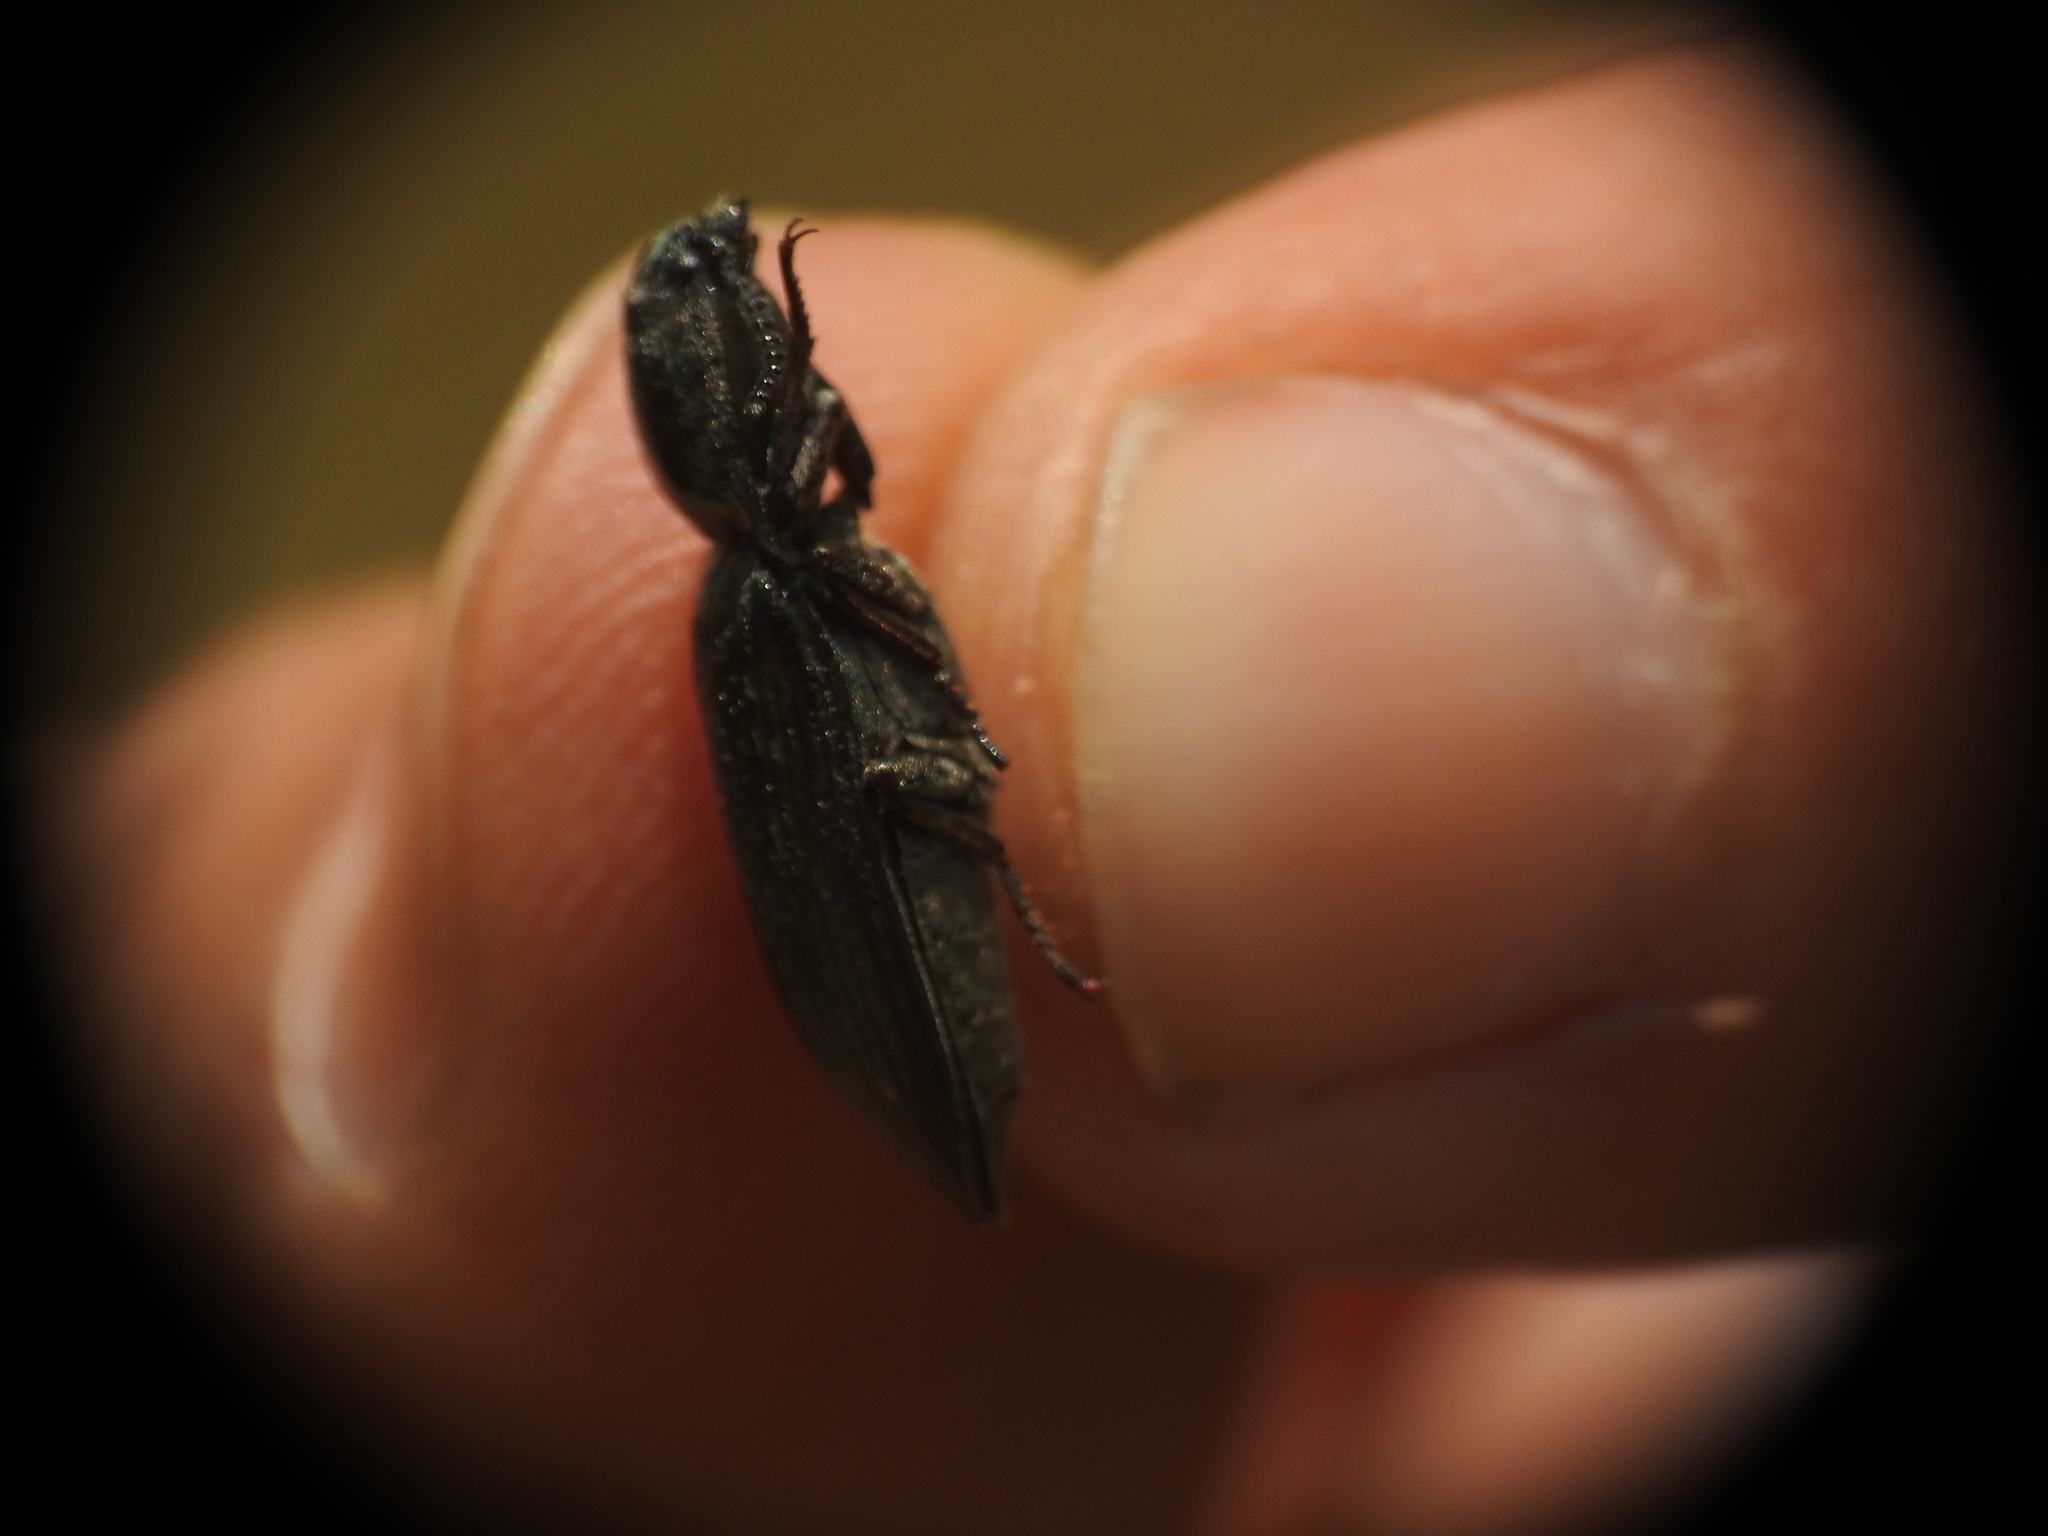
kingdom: Animalia
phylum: Arthropoda
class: Insecta
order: Coleoptera
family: Elateridae
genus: Selatosomus
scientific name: Selatosomus latus
